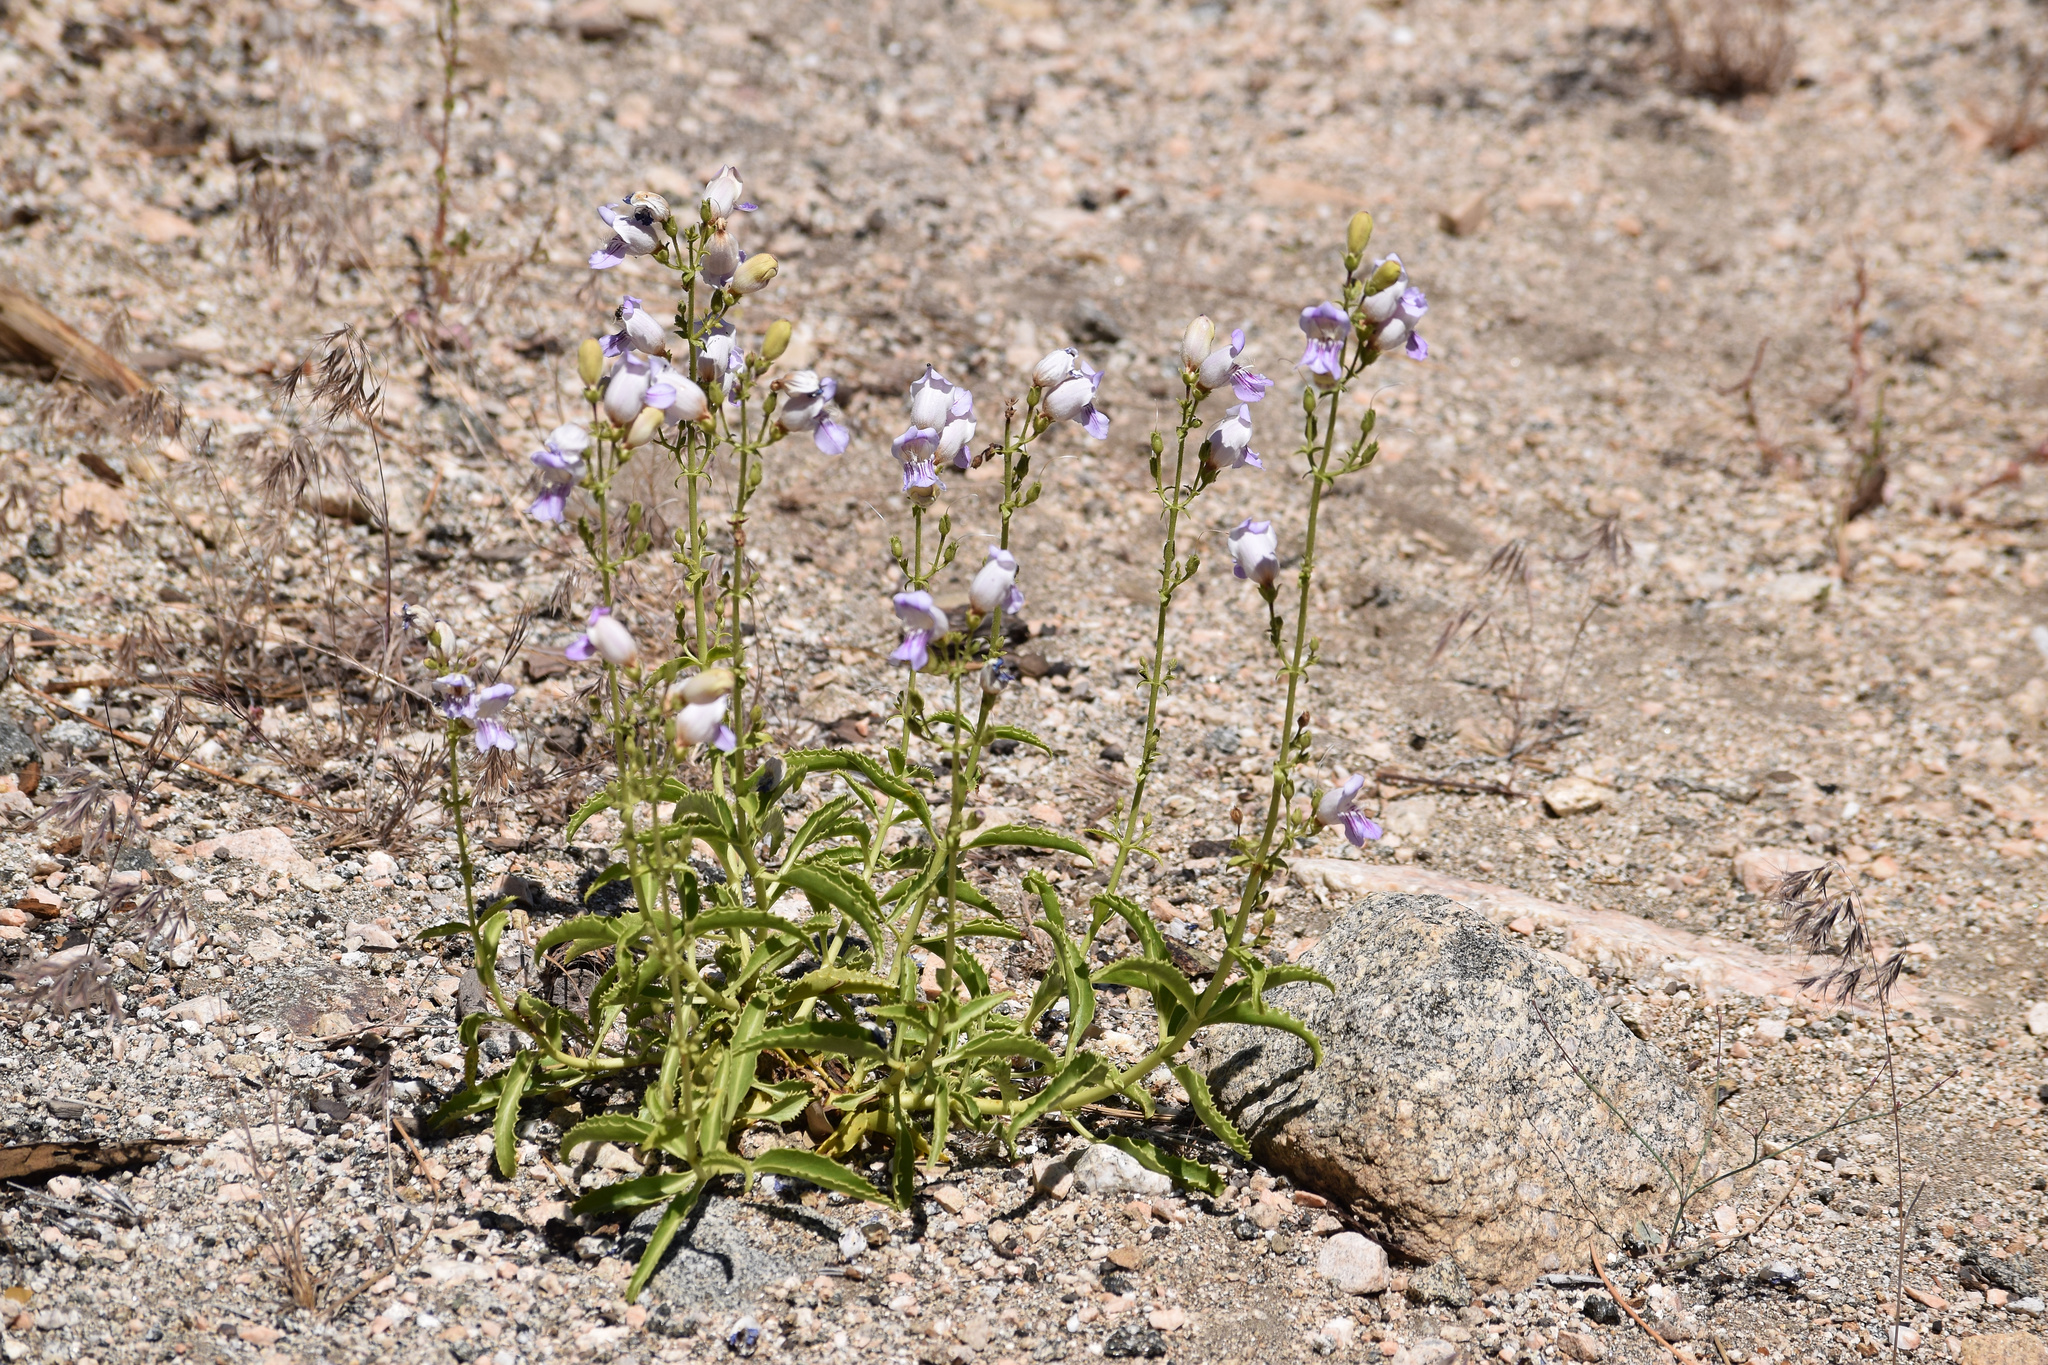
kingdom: Plantae
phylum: Tracheophyta
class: Magnoliopsida
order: Lamiales
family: Plantaginaceae
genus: Penstemon
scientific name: Penstemon grinnellii
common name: Grinnell's beardtongue
